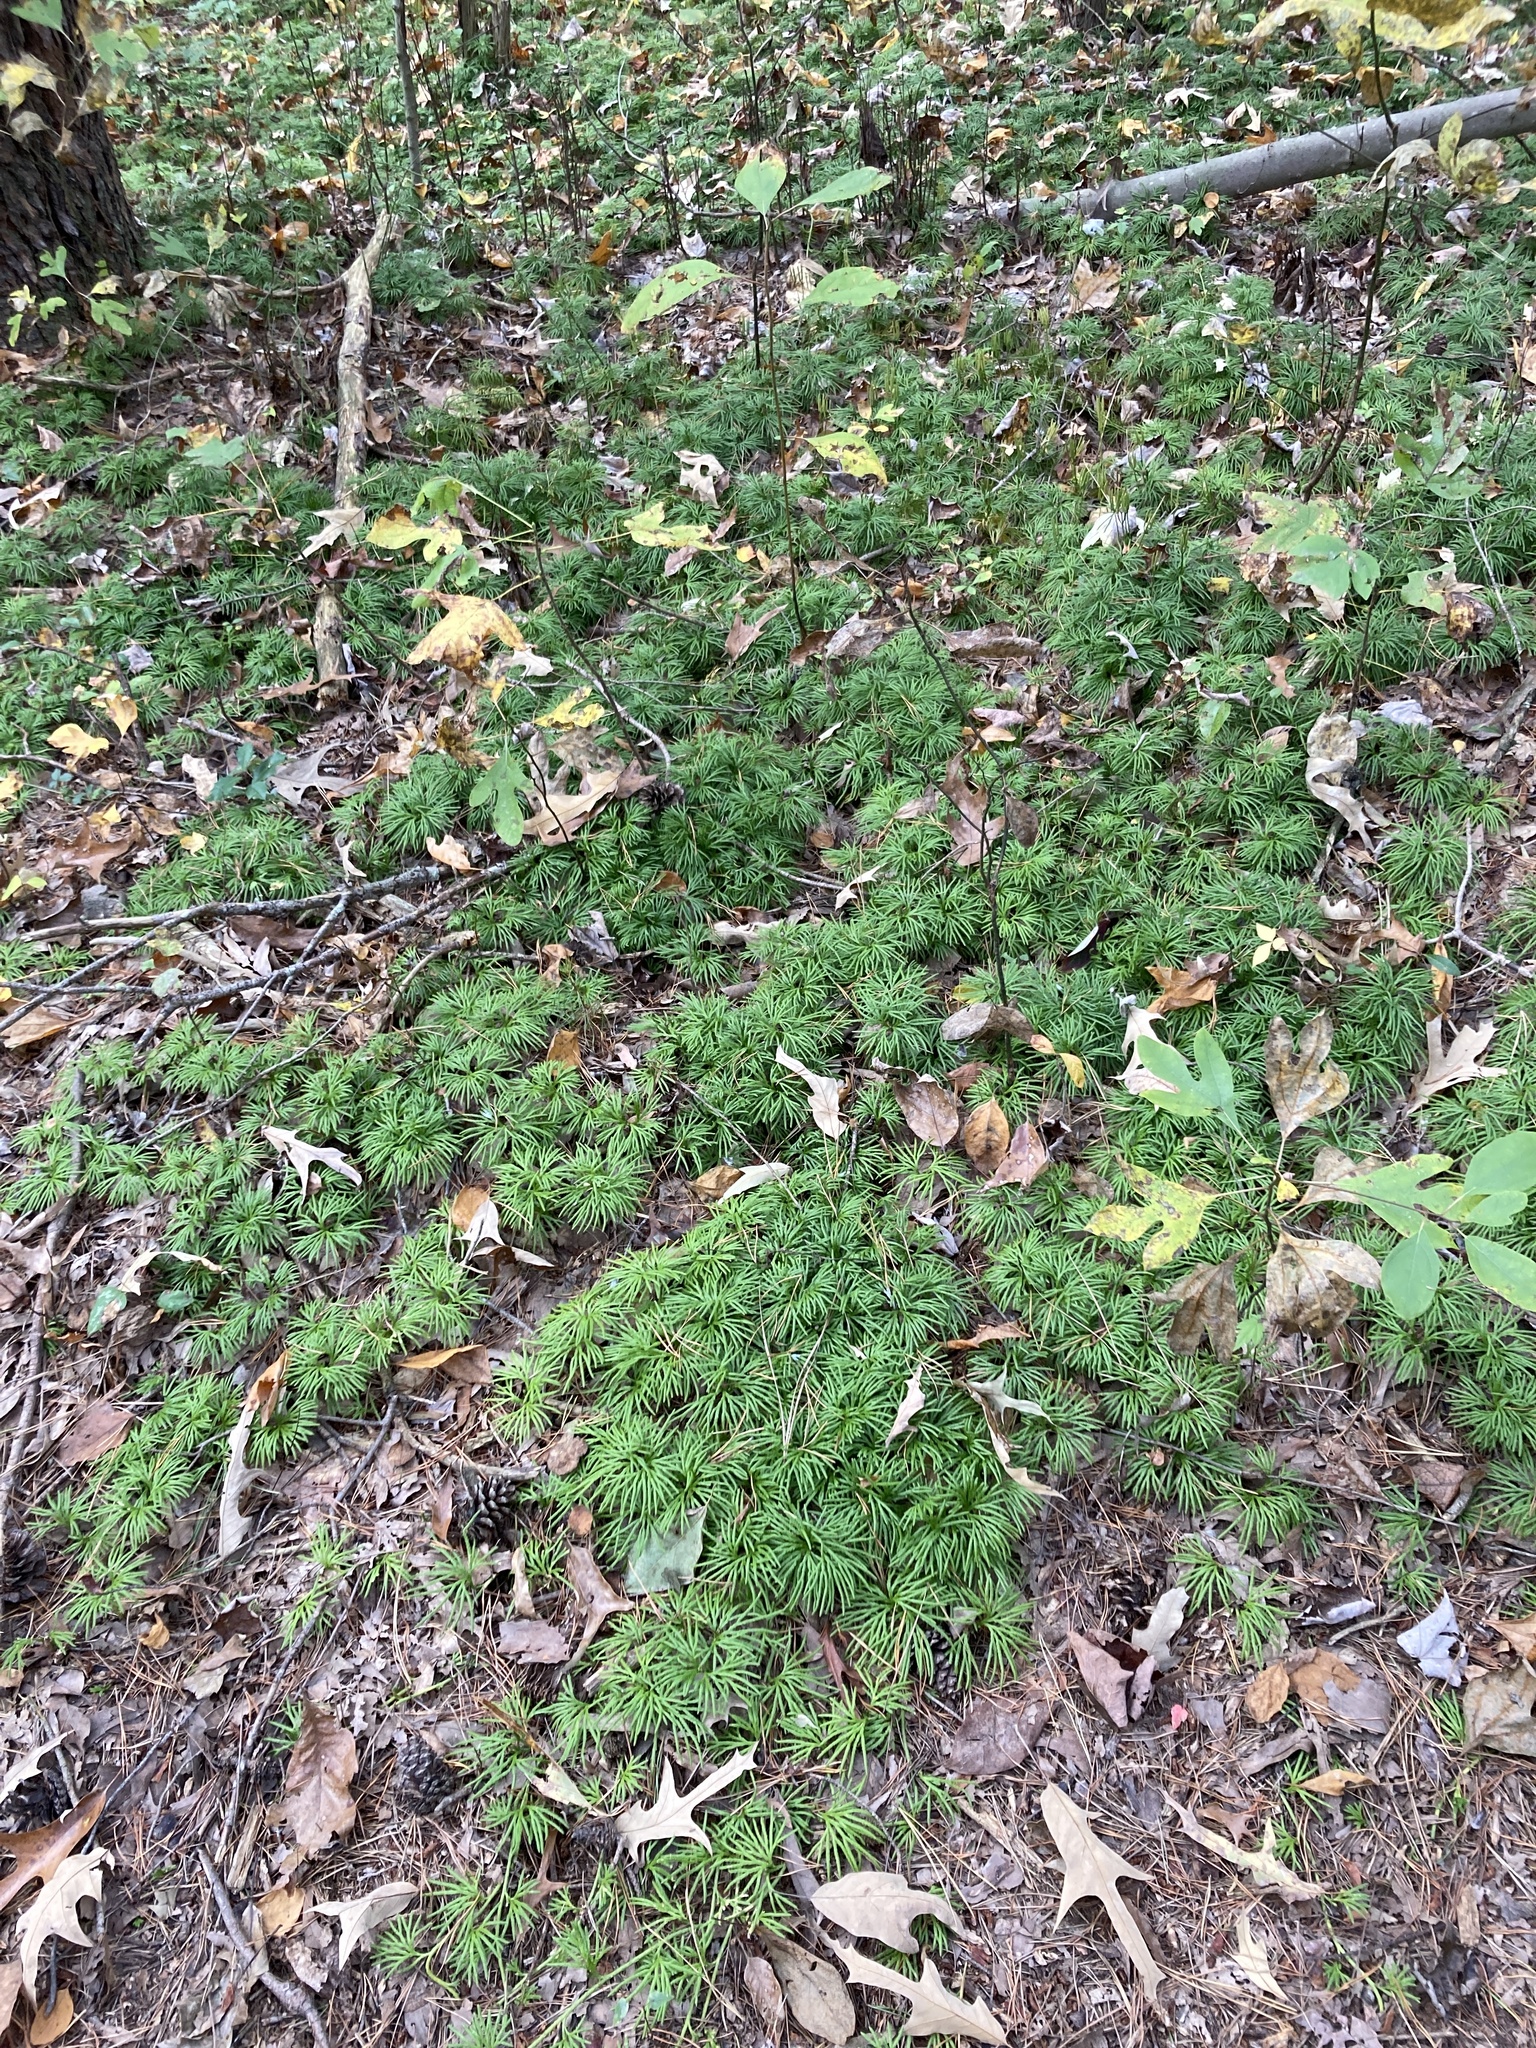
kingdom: Plantae
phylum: Tracheophyta
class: Lycopodiopsida
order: Lycopodiales
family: Lycopodiaceae
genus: Diphasiastrum
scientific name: Diphasiastrum digitatum
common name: Southern running-pine
